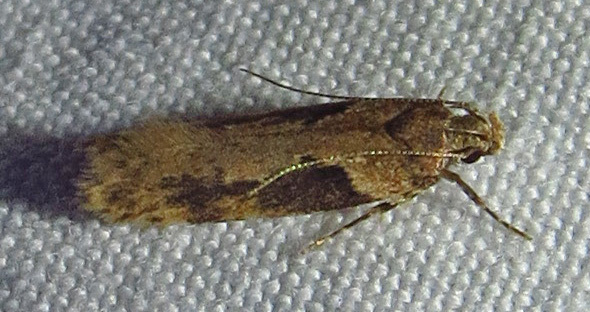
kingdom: Animalia
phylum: Arthropoda
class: Insecta
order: Lepidoptera
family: Gelechiidae
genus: Chionodes
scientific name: Chionodes mediofuscella
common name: Black-smudged chionodes moth
